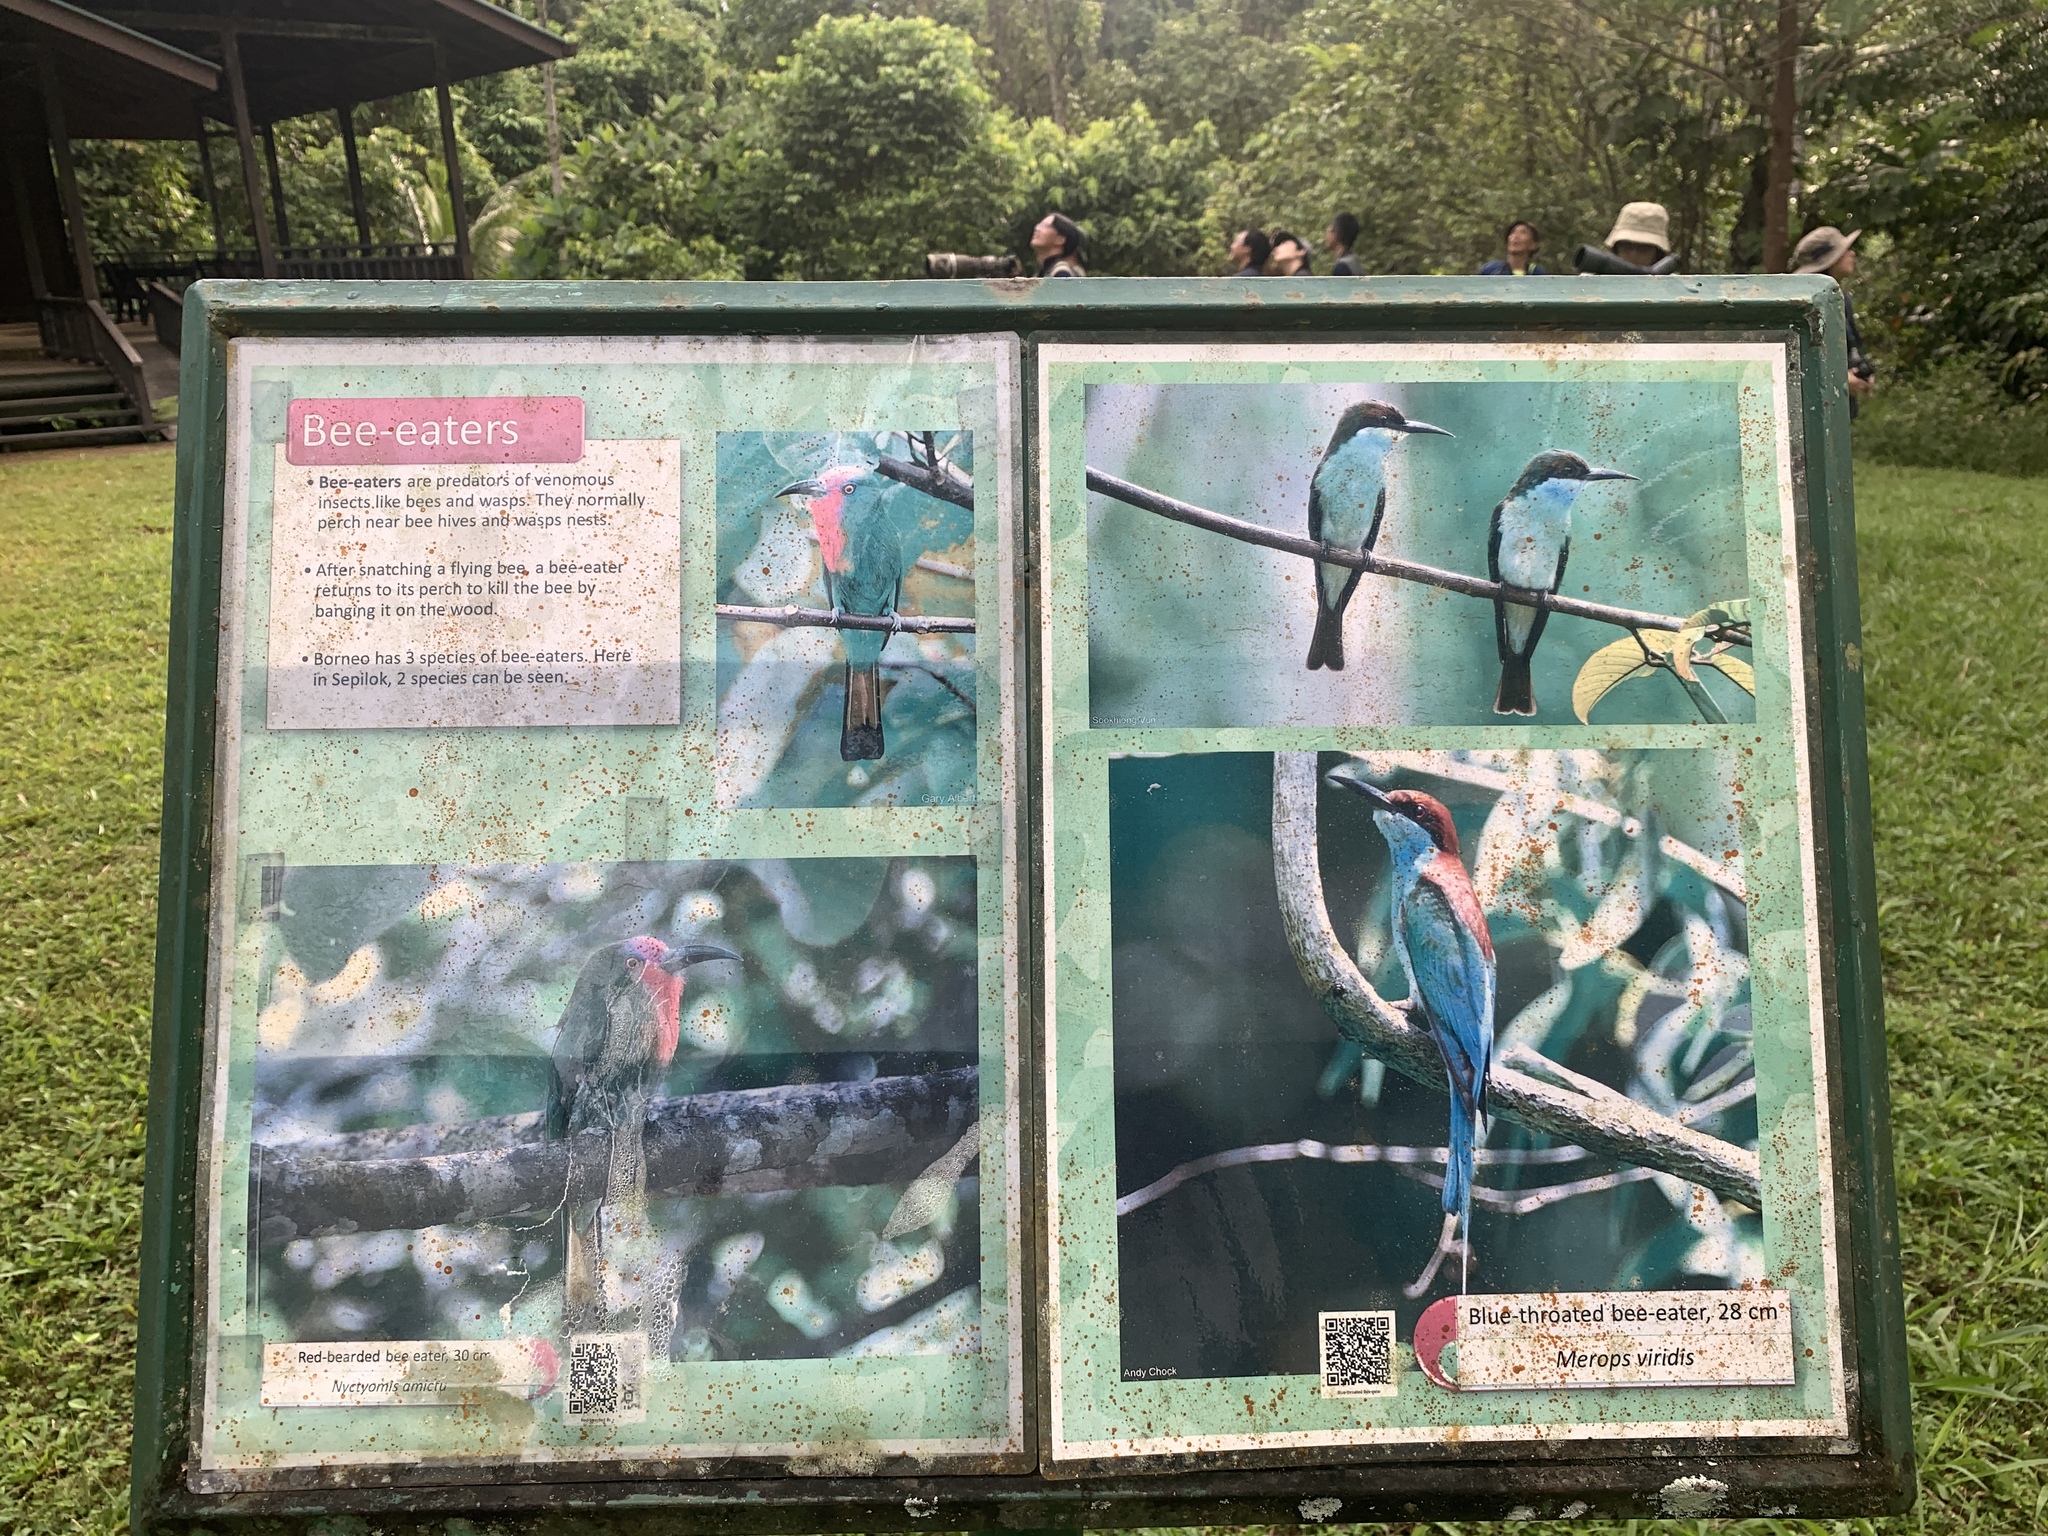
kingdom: Animalia
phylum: Chordata
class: Aves
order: Passeriformes
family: Nectariniidae
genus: Aethopyga
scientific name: Aethopyga siparaja
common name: Crimson sunbird
